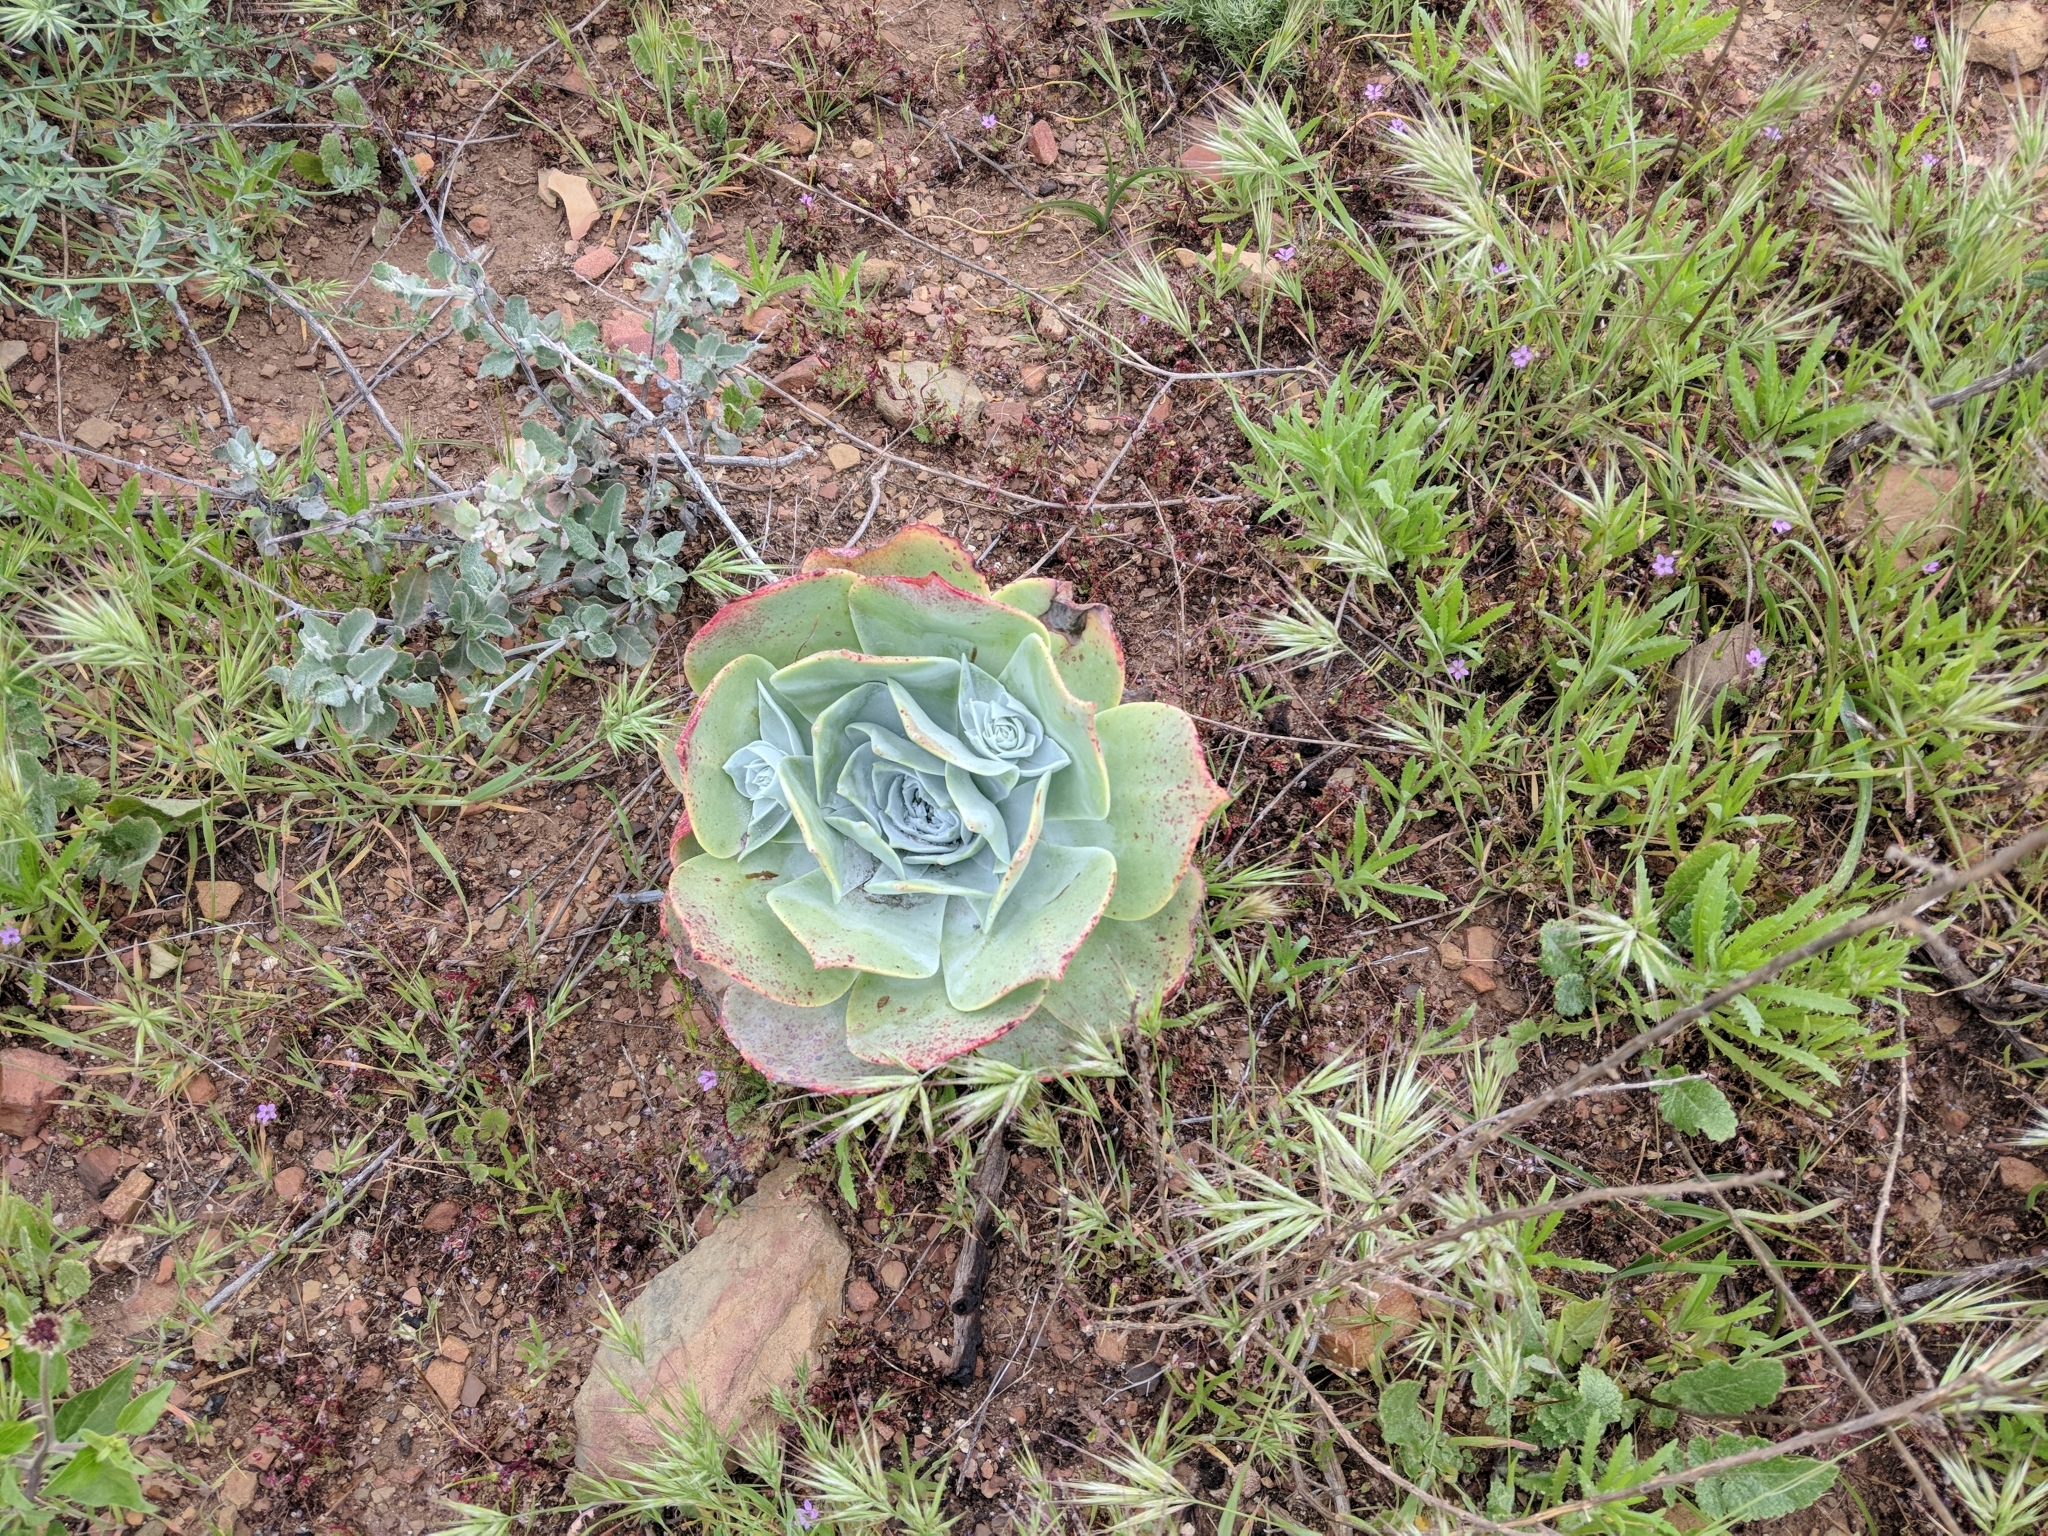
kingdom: Plantae
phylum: Tracheophyta
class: Magnoliopsida
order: Saxifragales
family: Crassulaceae
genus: Dudleya
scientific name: Dudleya pulverulenta
